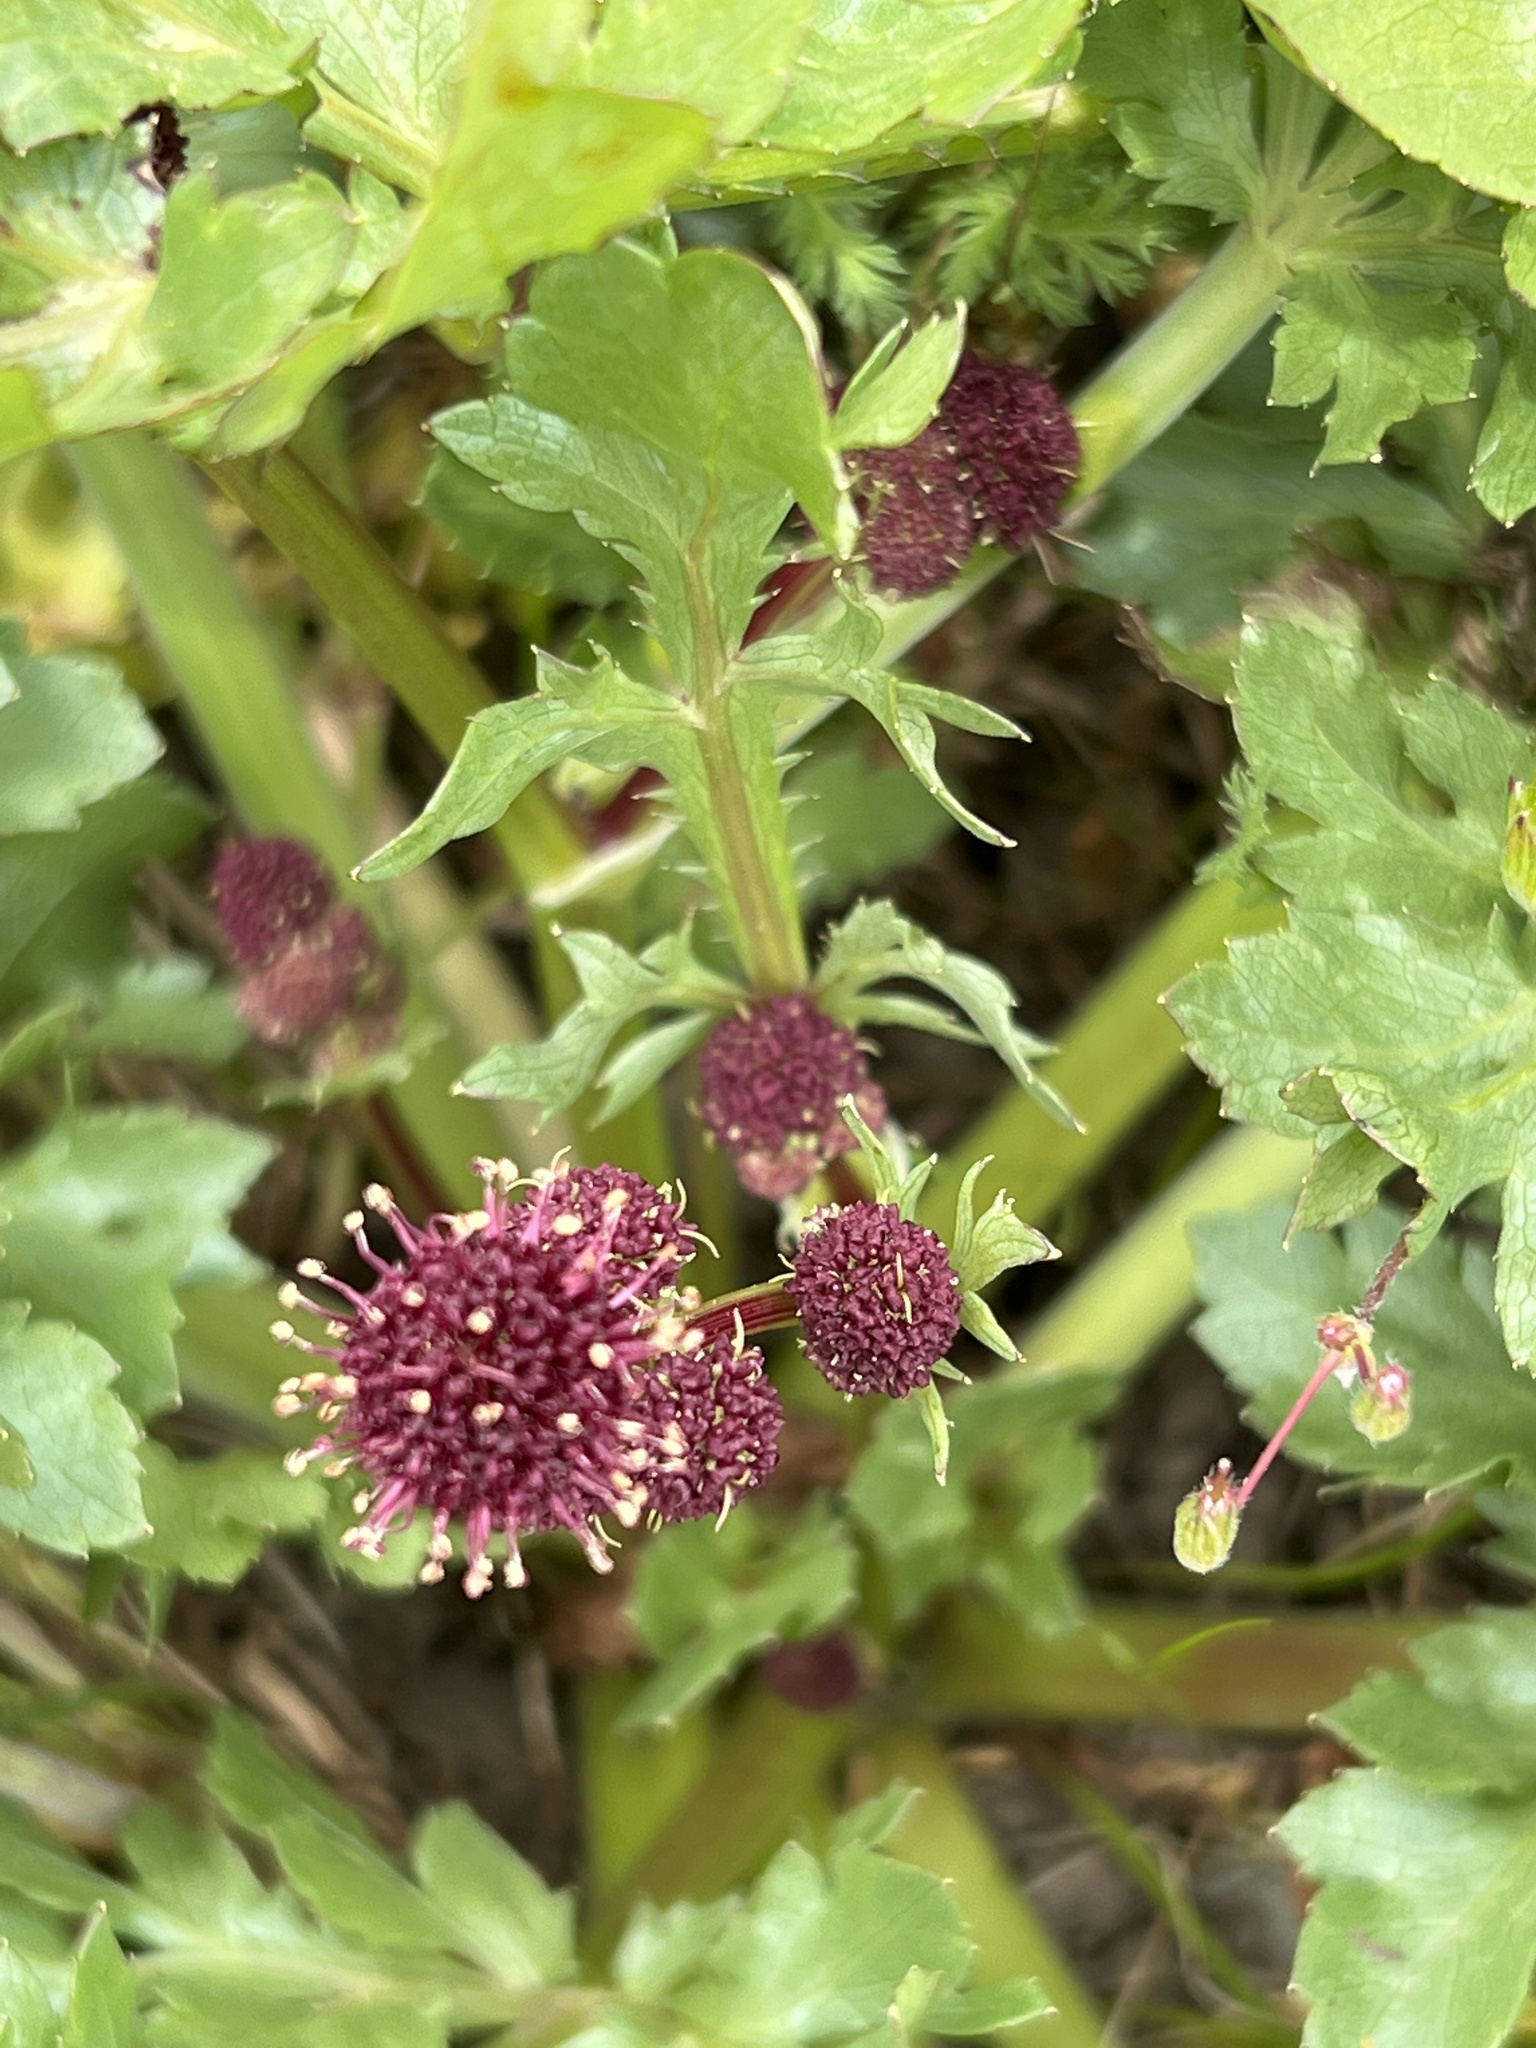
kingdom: Plantae
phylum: Tracheophyta
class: Magnoliopsida
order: Apiales
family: Apiaceae
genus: Sanicula
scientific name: Sanicula bipinnatifida
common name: Shoe-buttons
